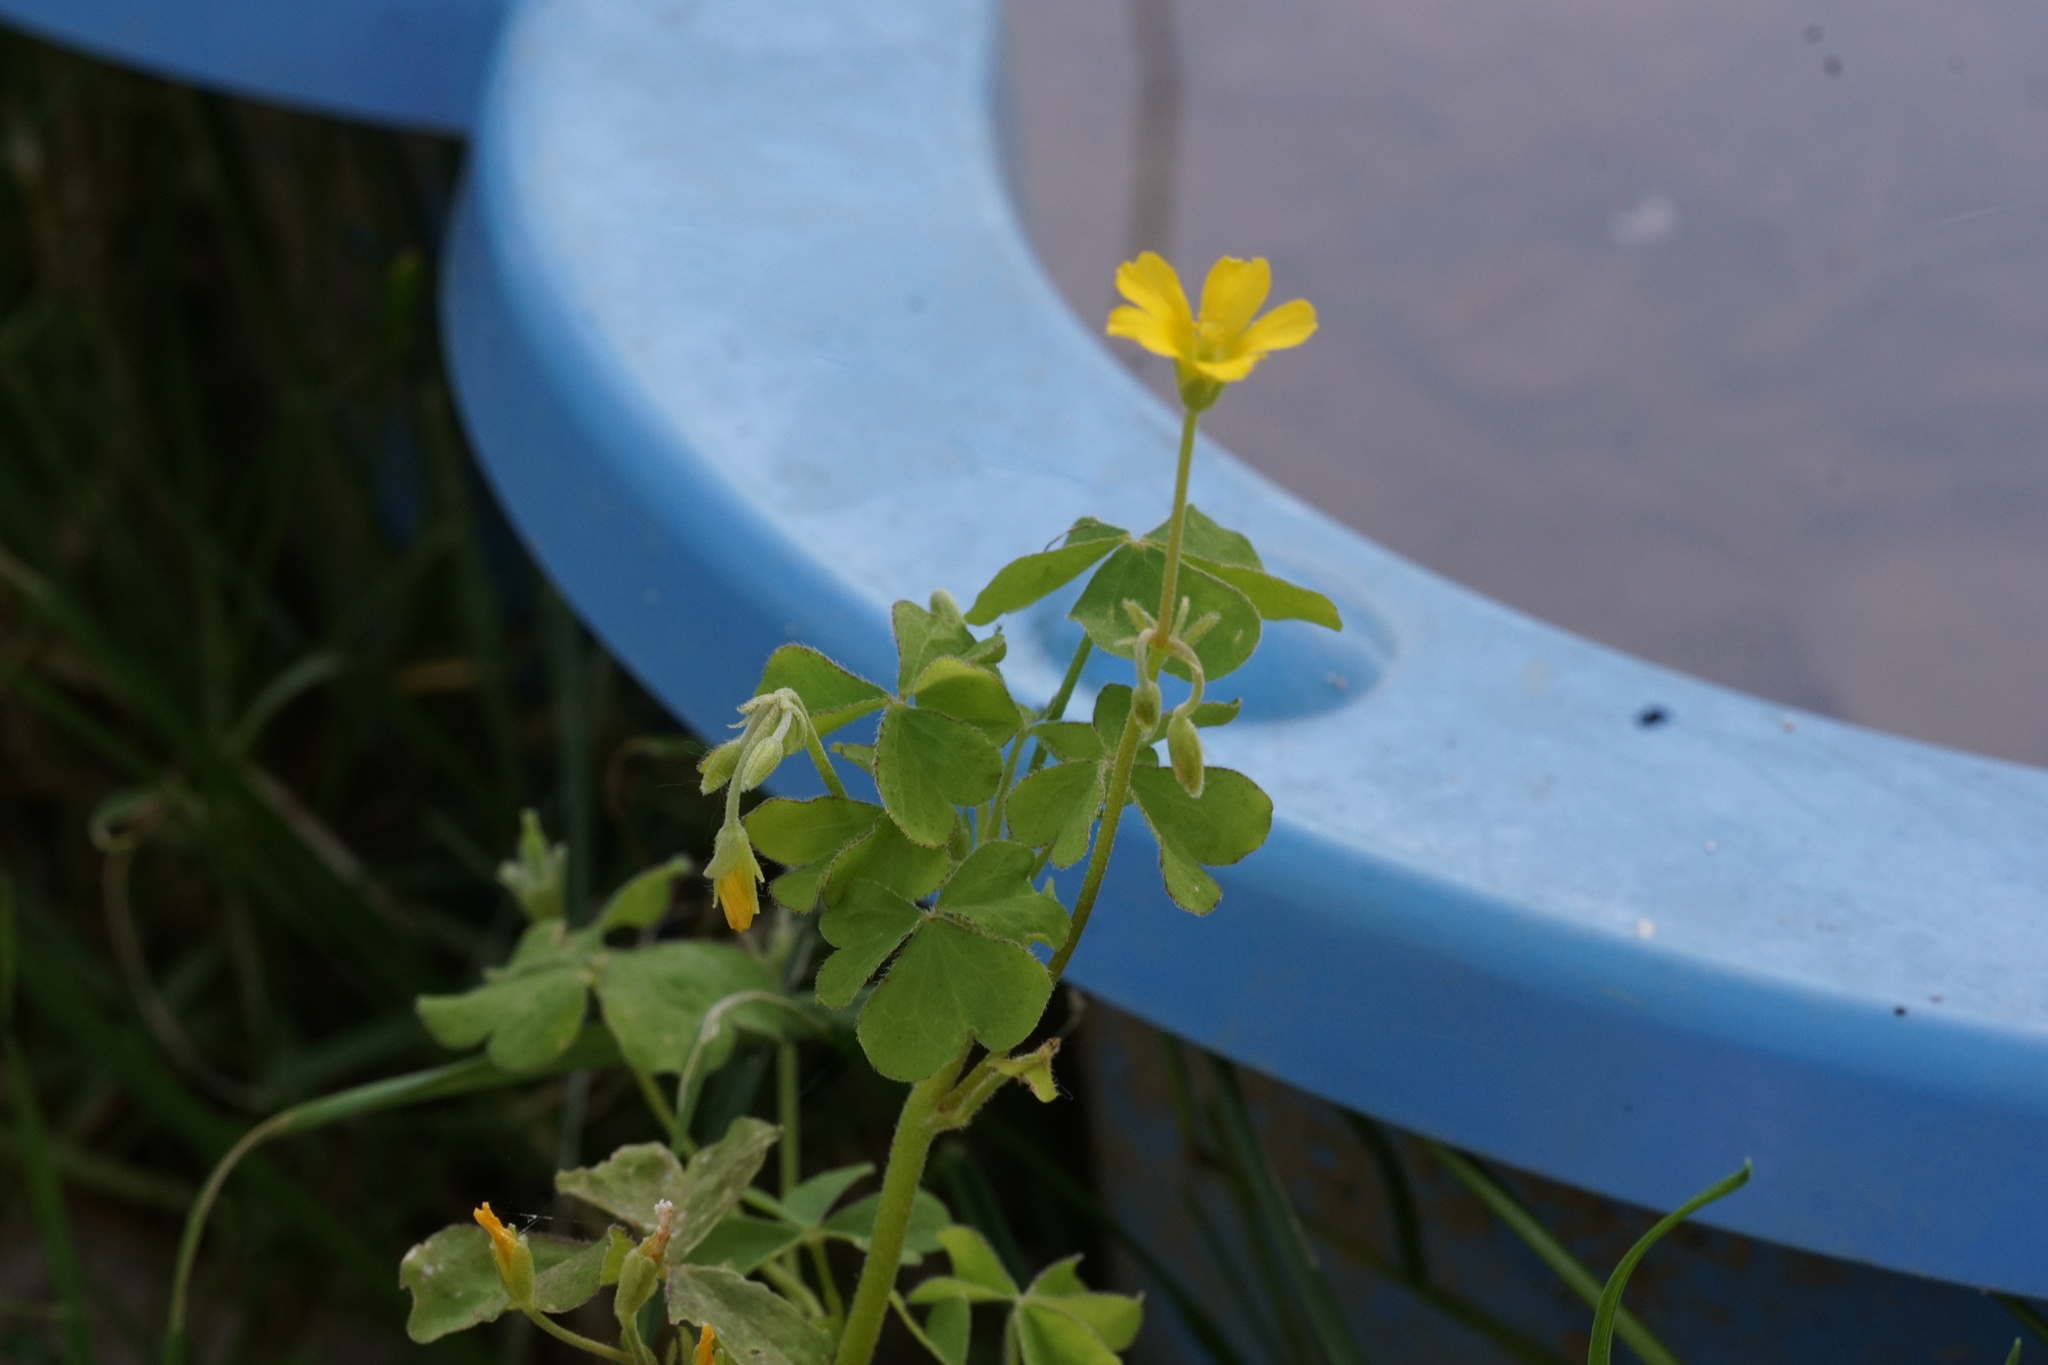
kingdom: Plantae
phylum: Tracheophyta
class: Magnoliopsida
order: Oxalidales
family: Oxalidaceae
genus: Oxalis
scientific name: Oxalis corniculata
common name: Procumbent yellow-sorrel
